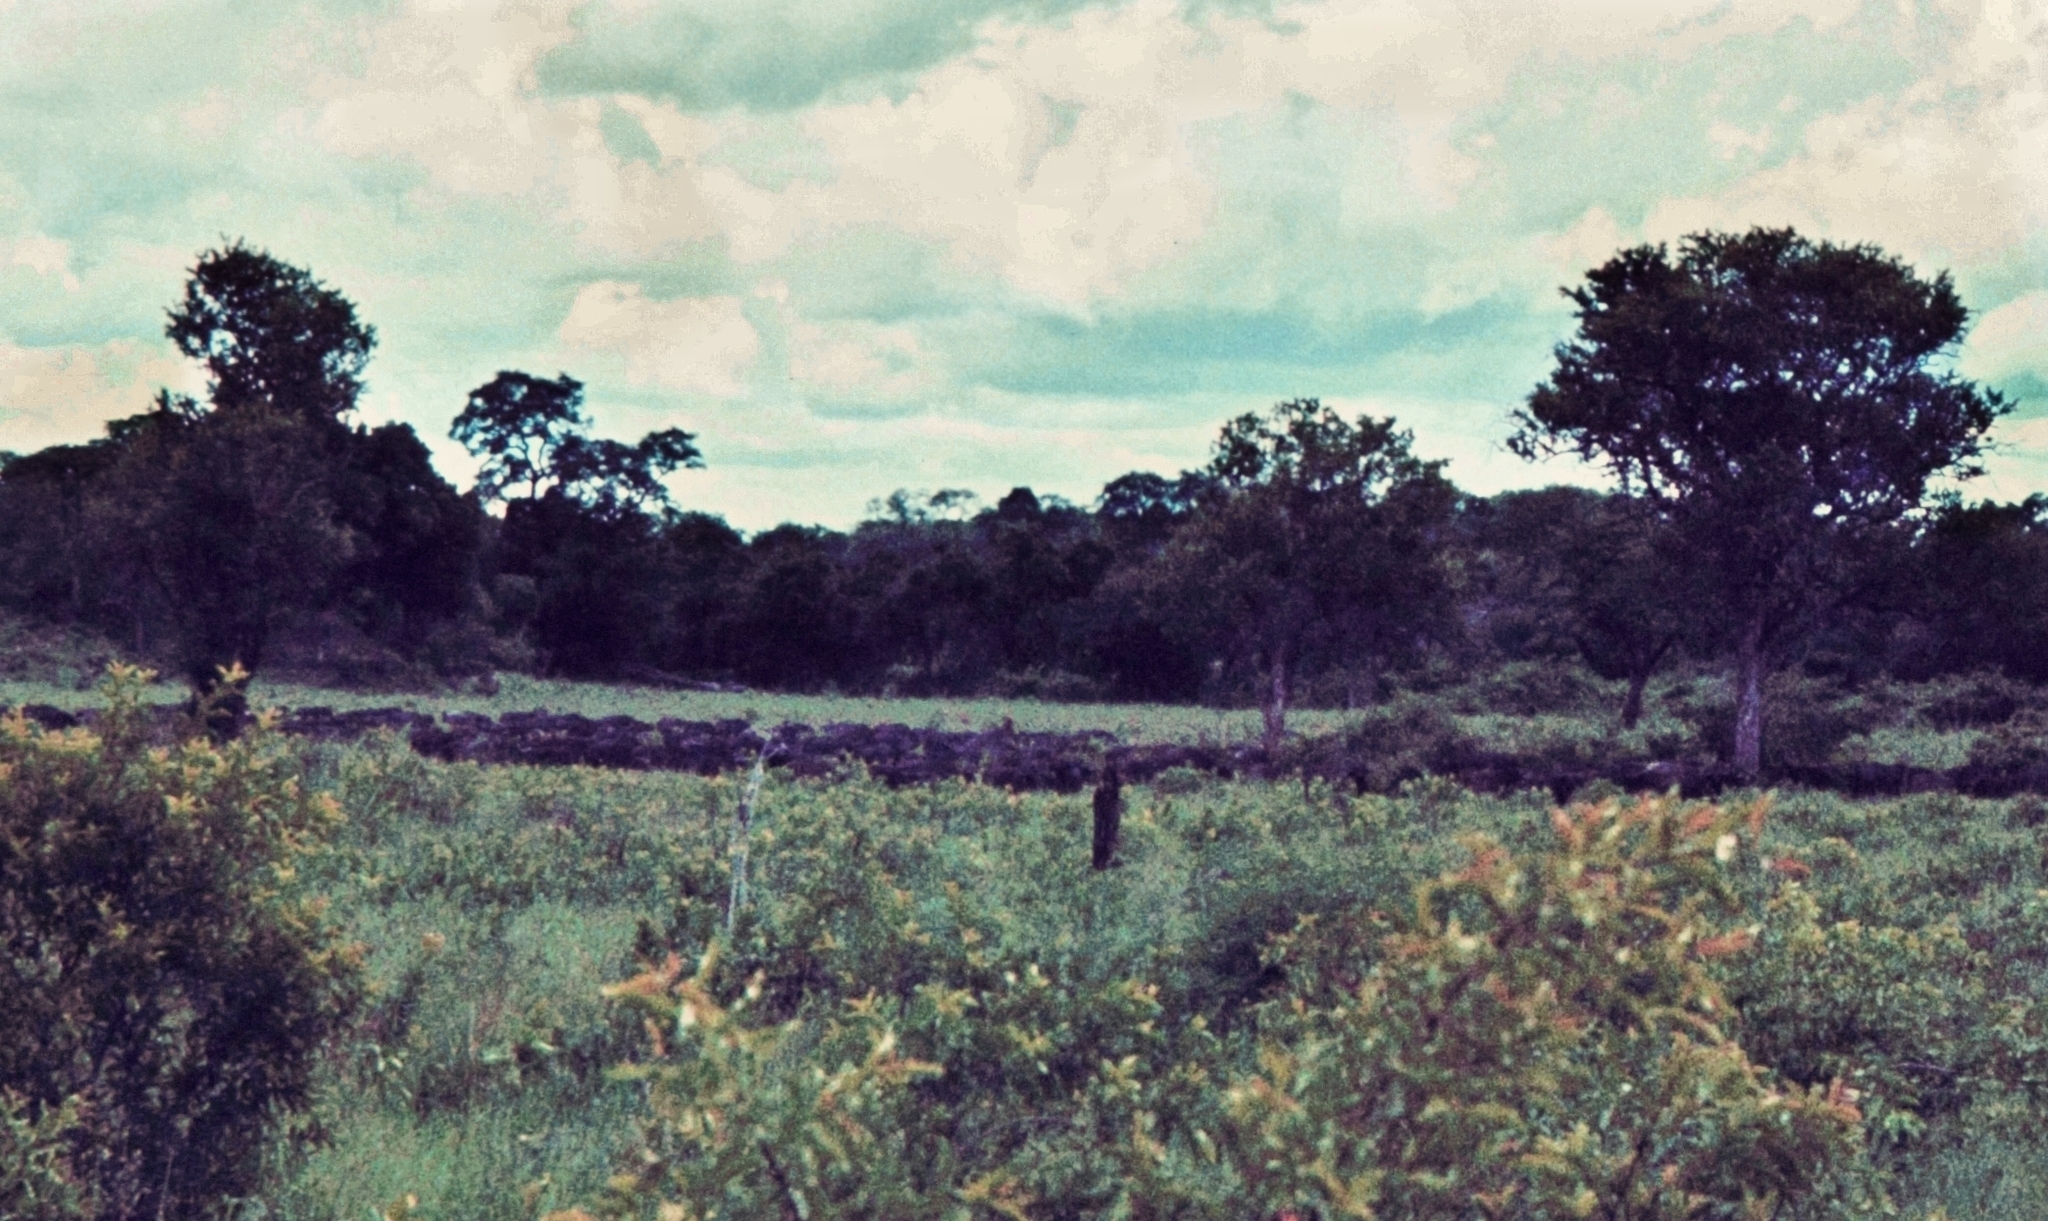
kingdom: Animalia
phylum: Chordata
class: Mammalia
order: Artiodactyla
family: Bovidae
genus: Syncerus
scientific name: Syncerus caffer
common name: African buffalo
